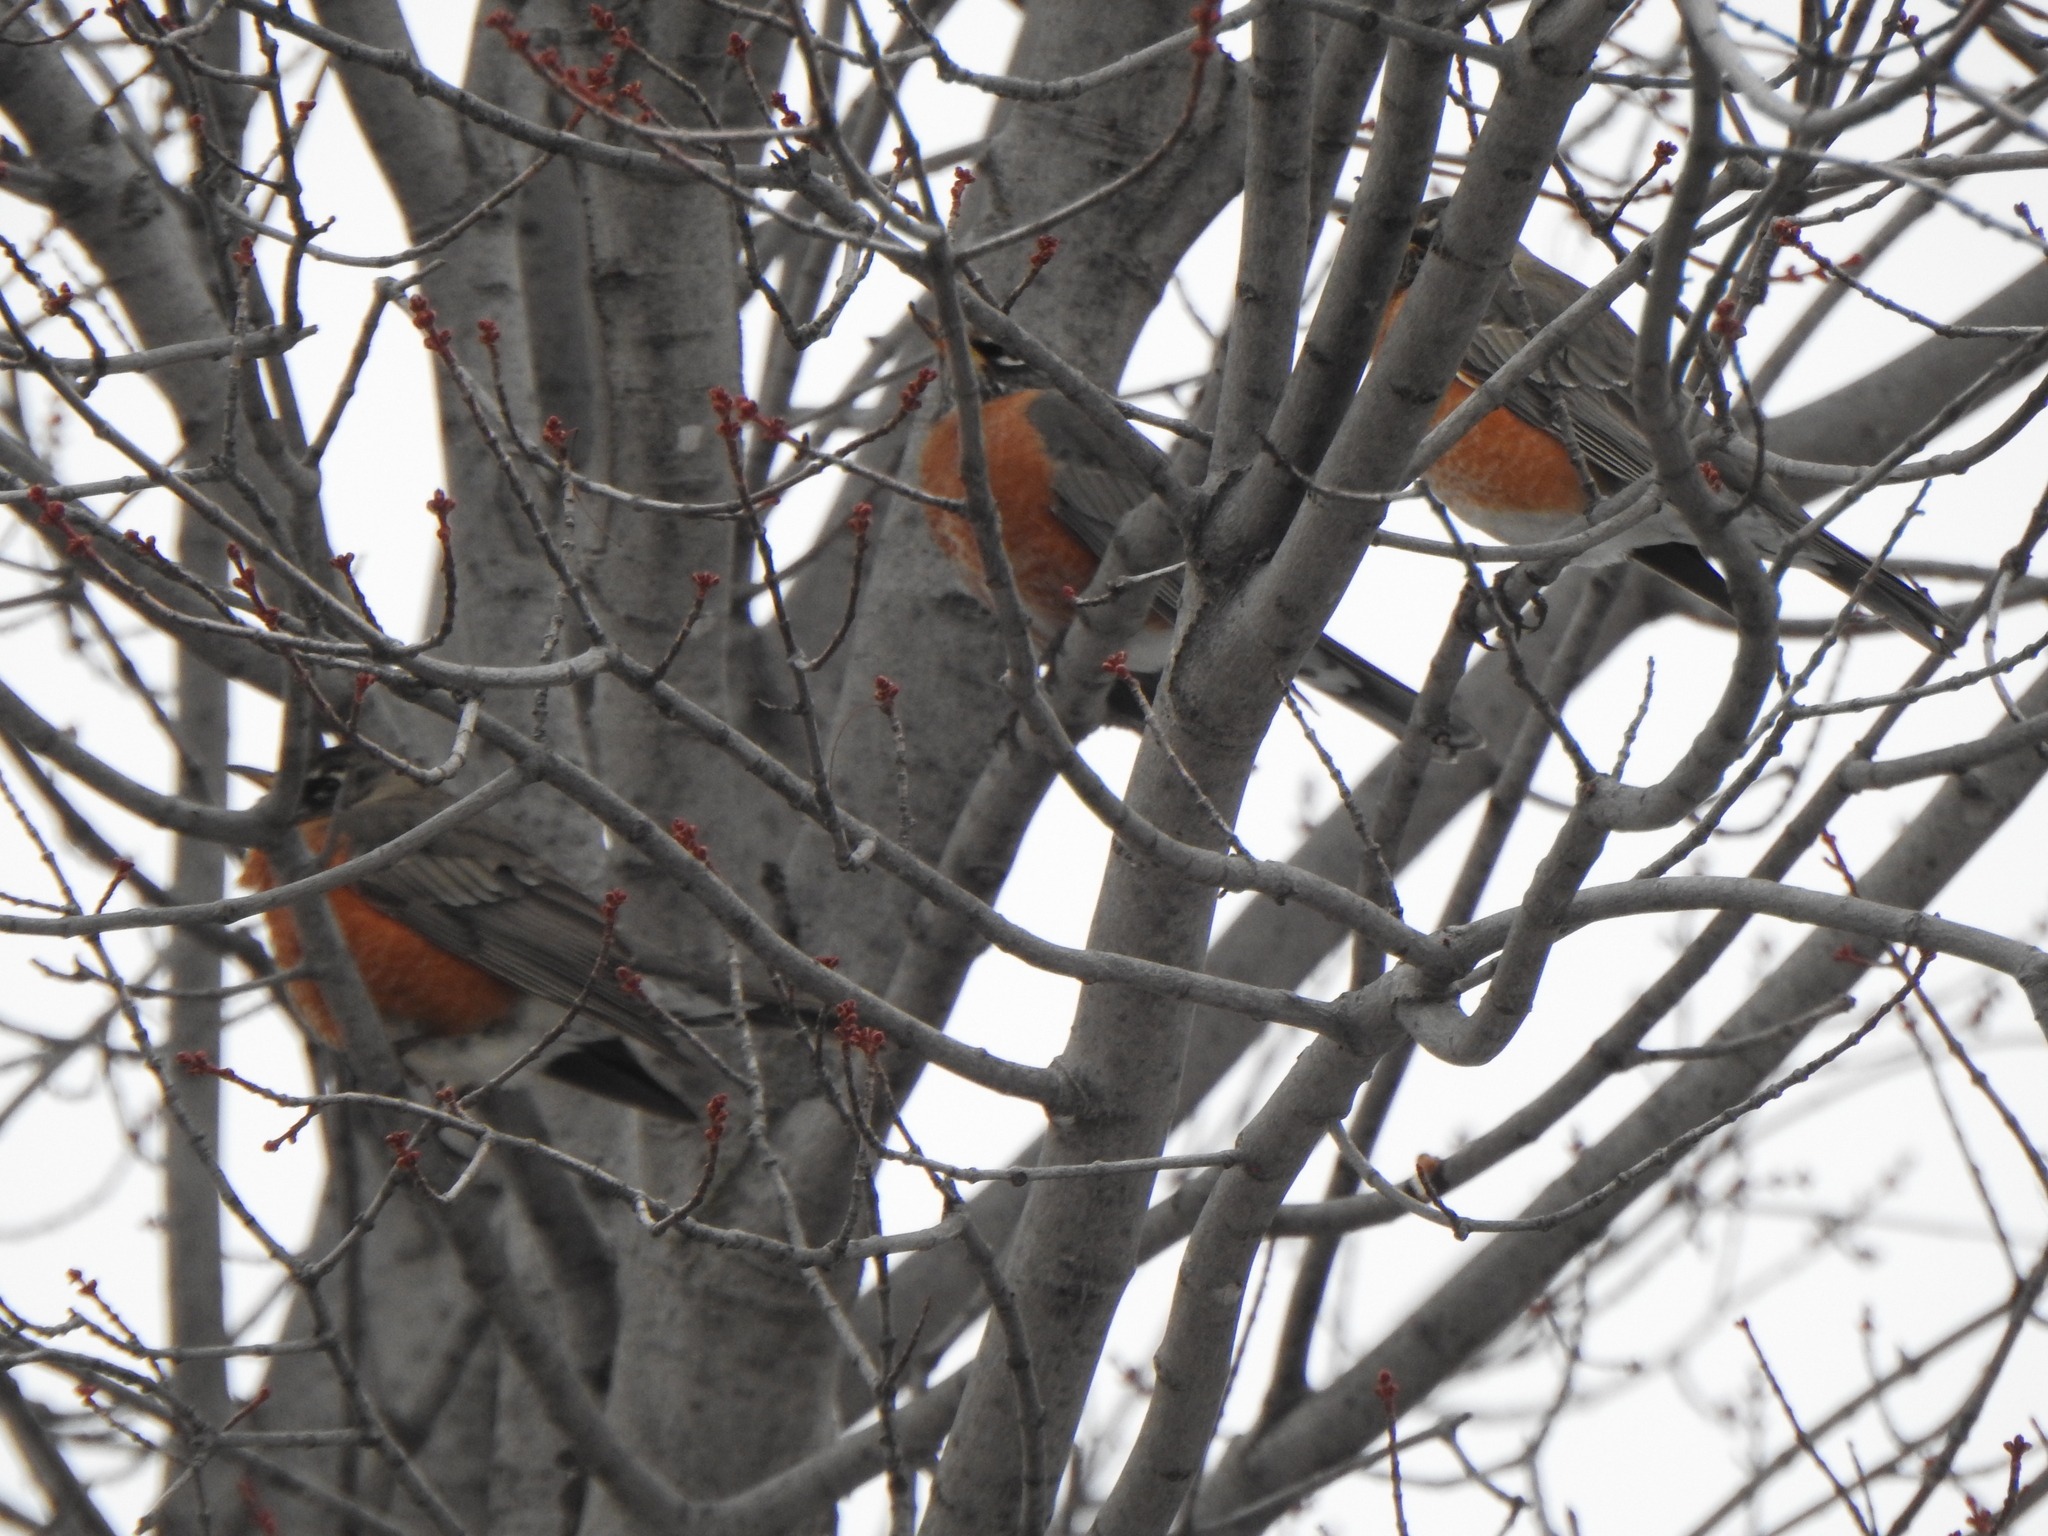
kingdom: Animalia
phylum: Chordata
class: Aves
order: Passeriformes
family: Turdidae
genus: Turdus
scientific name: Turdus migratorius
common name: American robin
